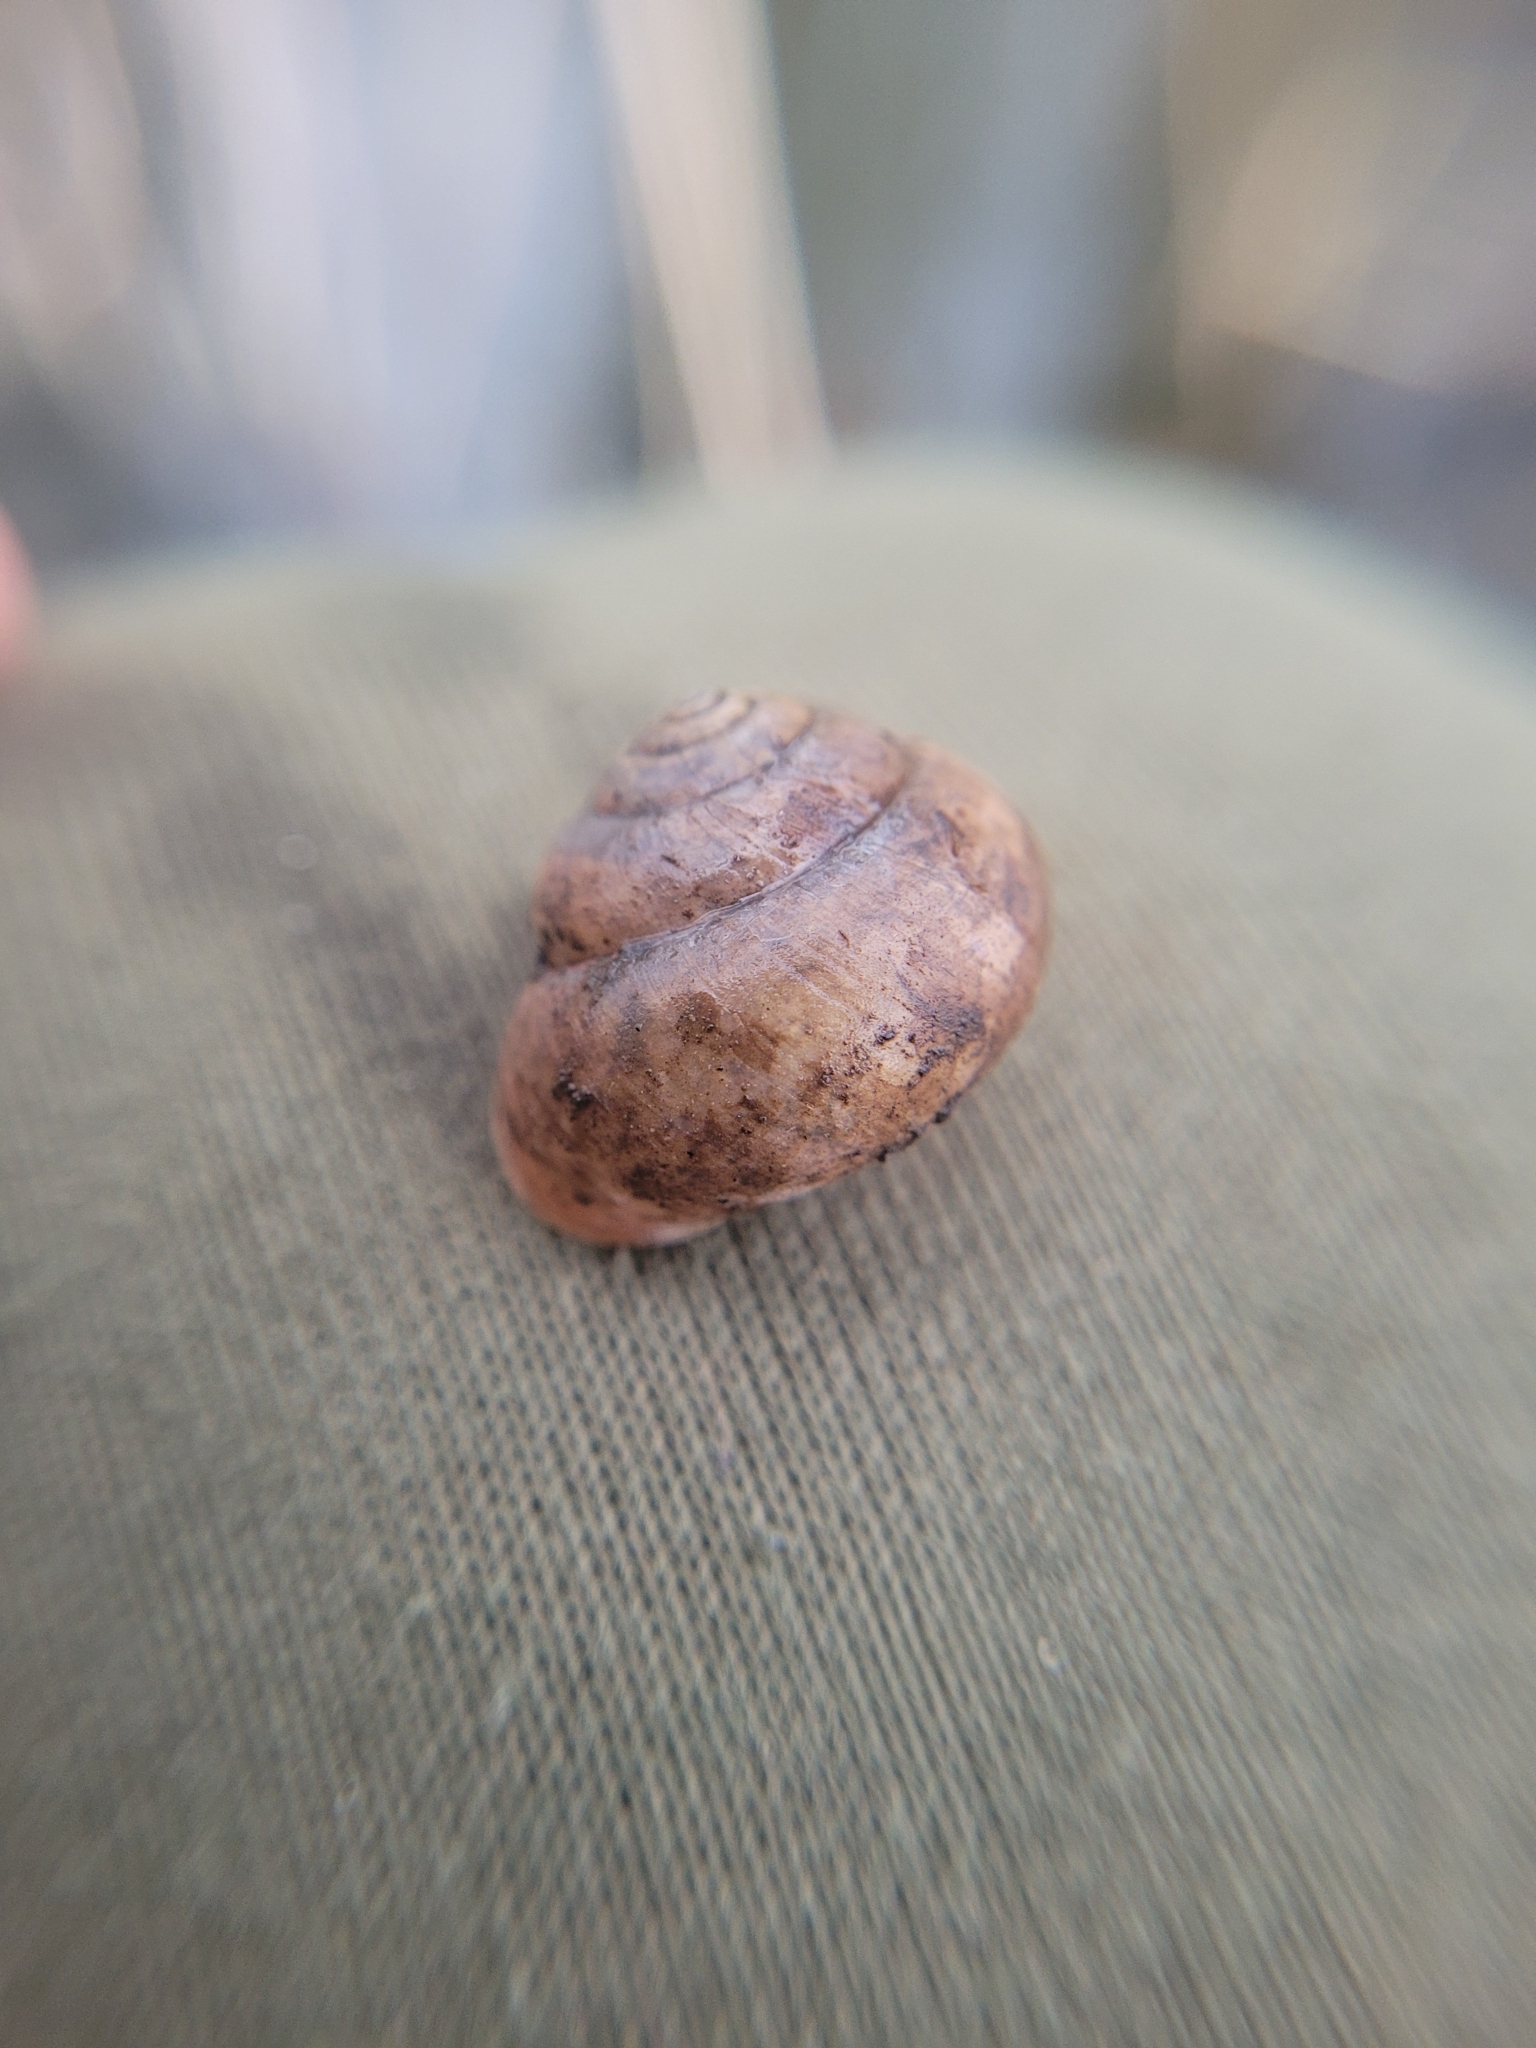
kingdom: Animalia
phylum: Mollusca
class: Gastropoda
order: Stylommatophora
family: Camaenidae
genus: Fruticicola
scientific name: Fruticicola fruticum
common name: Bush snail
